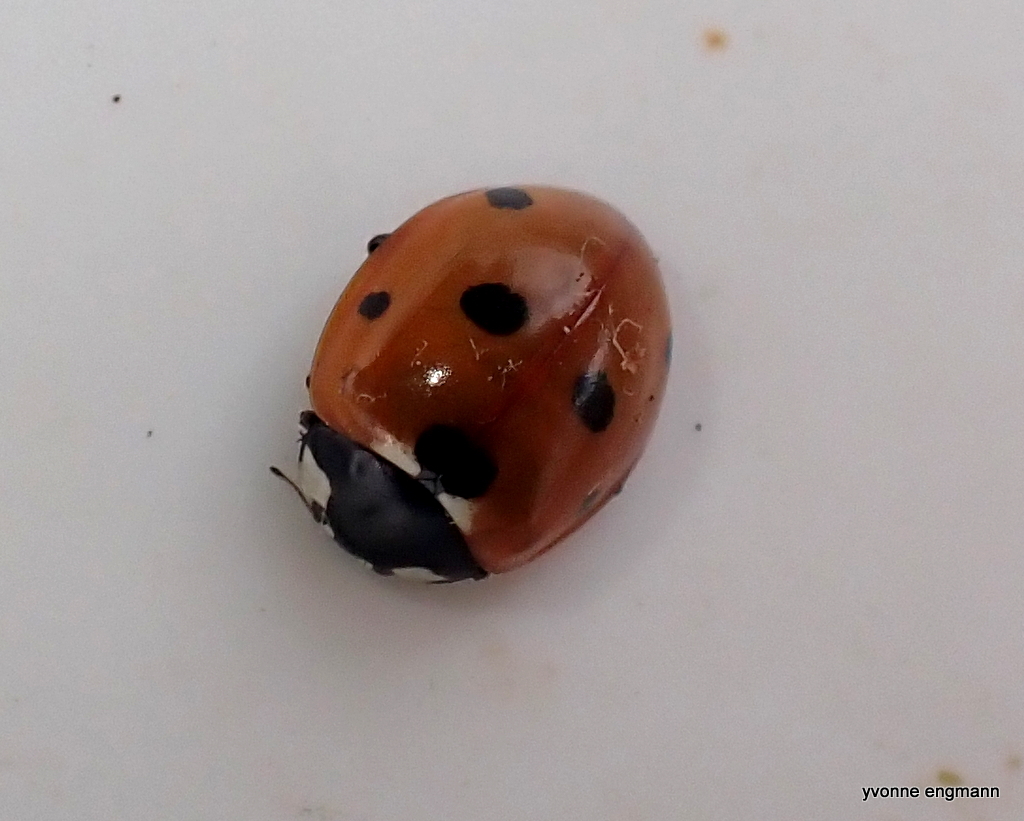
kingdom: Animalia
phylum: Arthropoda
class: Insecta
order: Coleoptera
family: Coccinellidae
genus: Coccinella
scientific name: Coccinella septempunctata
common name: Sevenspotted lady beetle
